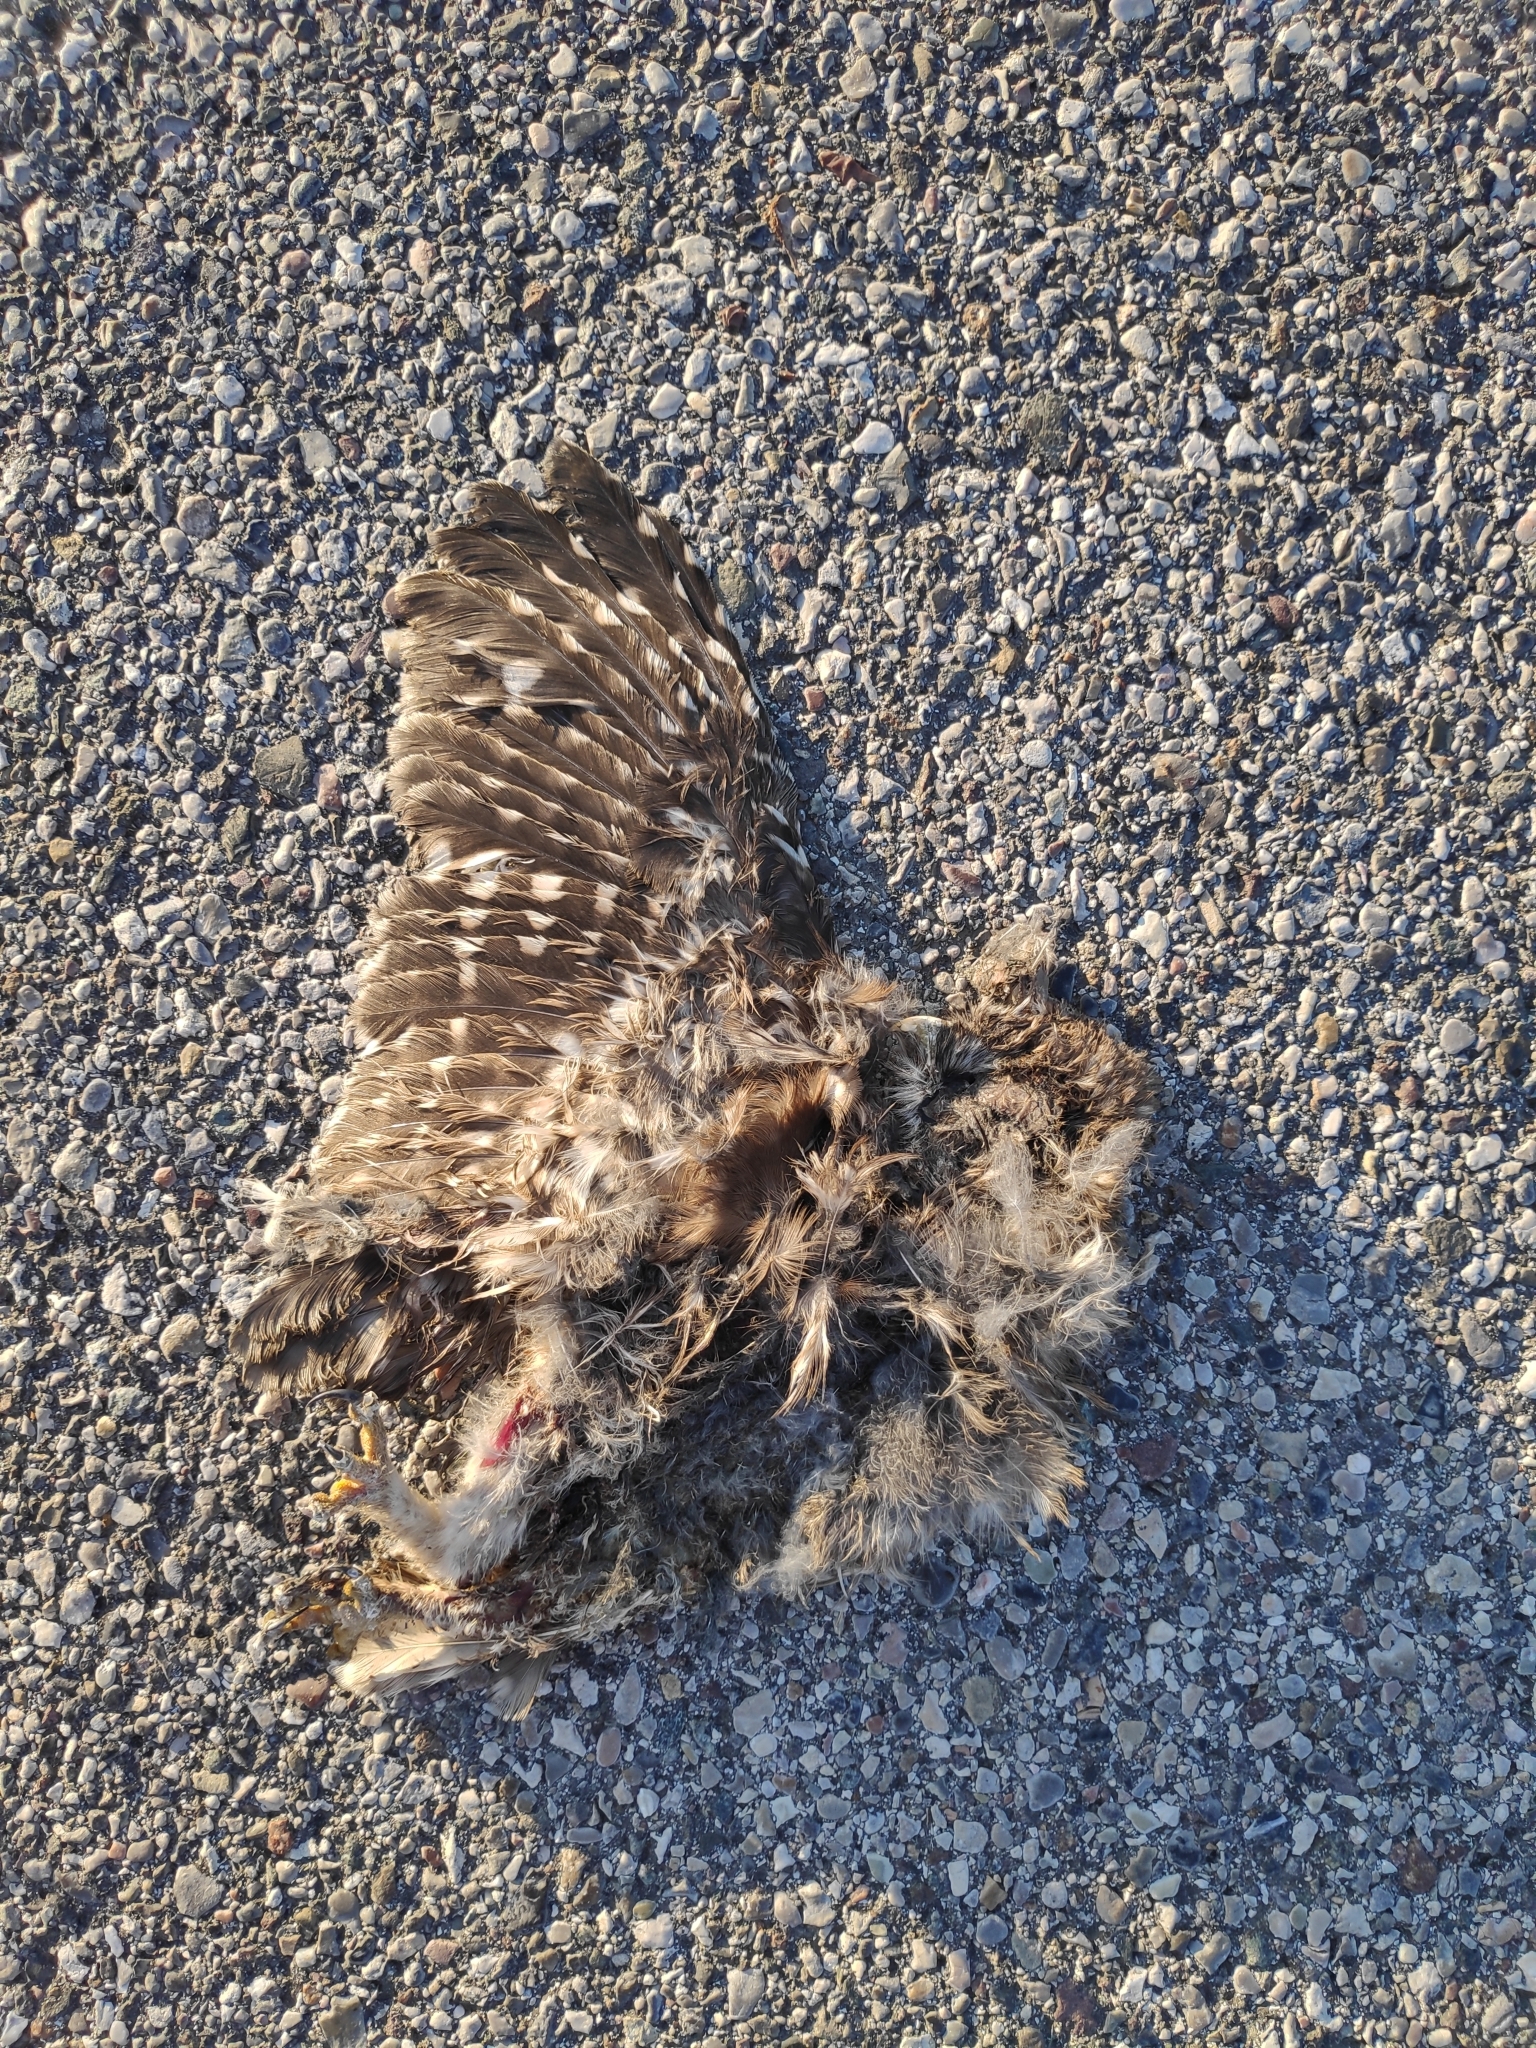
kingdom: Animalia
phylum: Chordata
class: Aves
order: Strigiformes
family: Strigidae
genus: Athene
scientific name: Athene noctua
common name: Little owl
